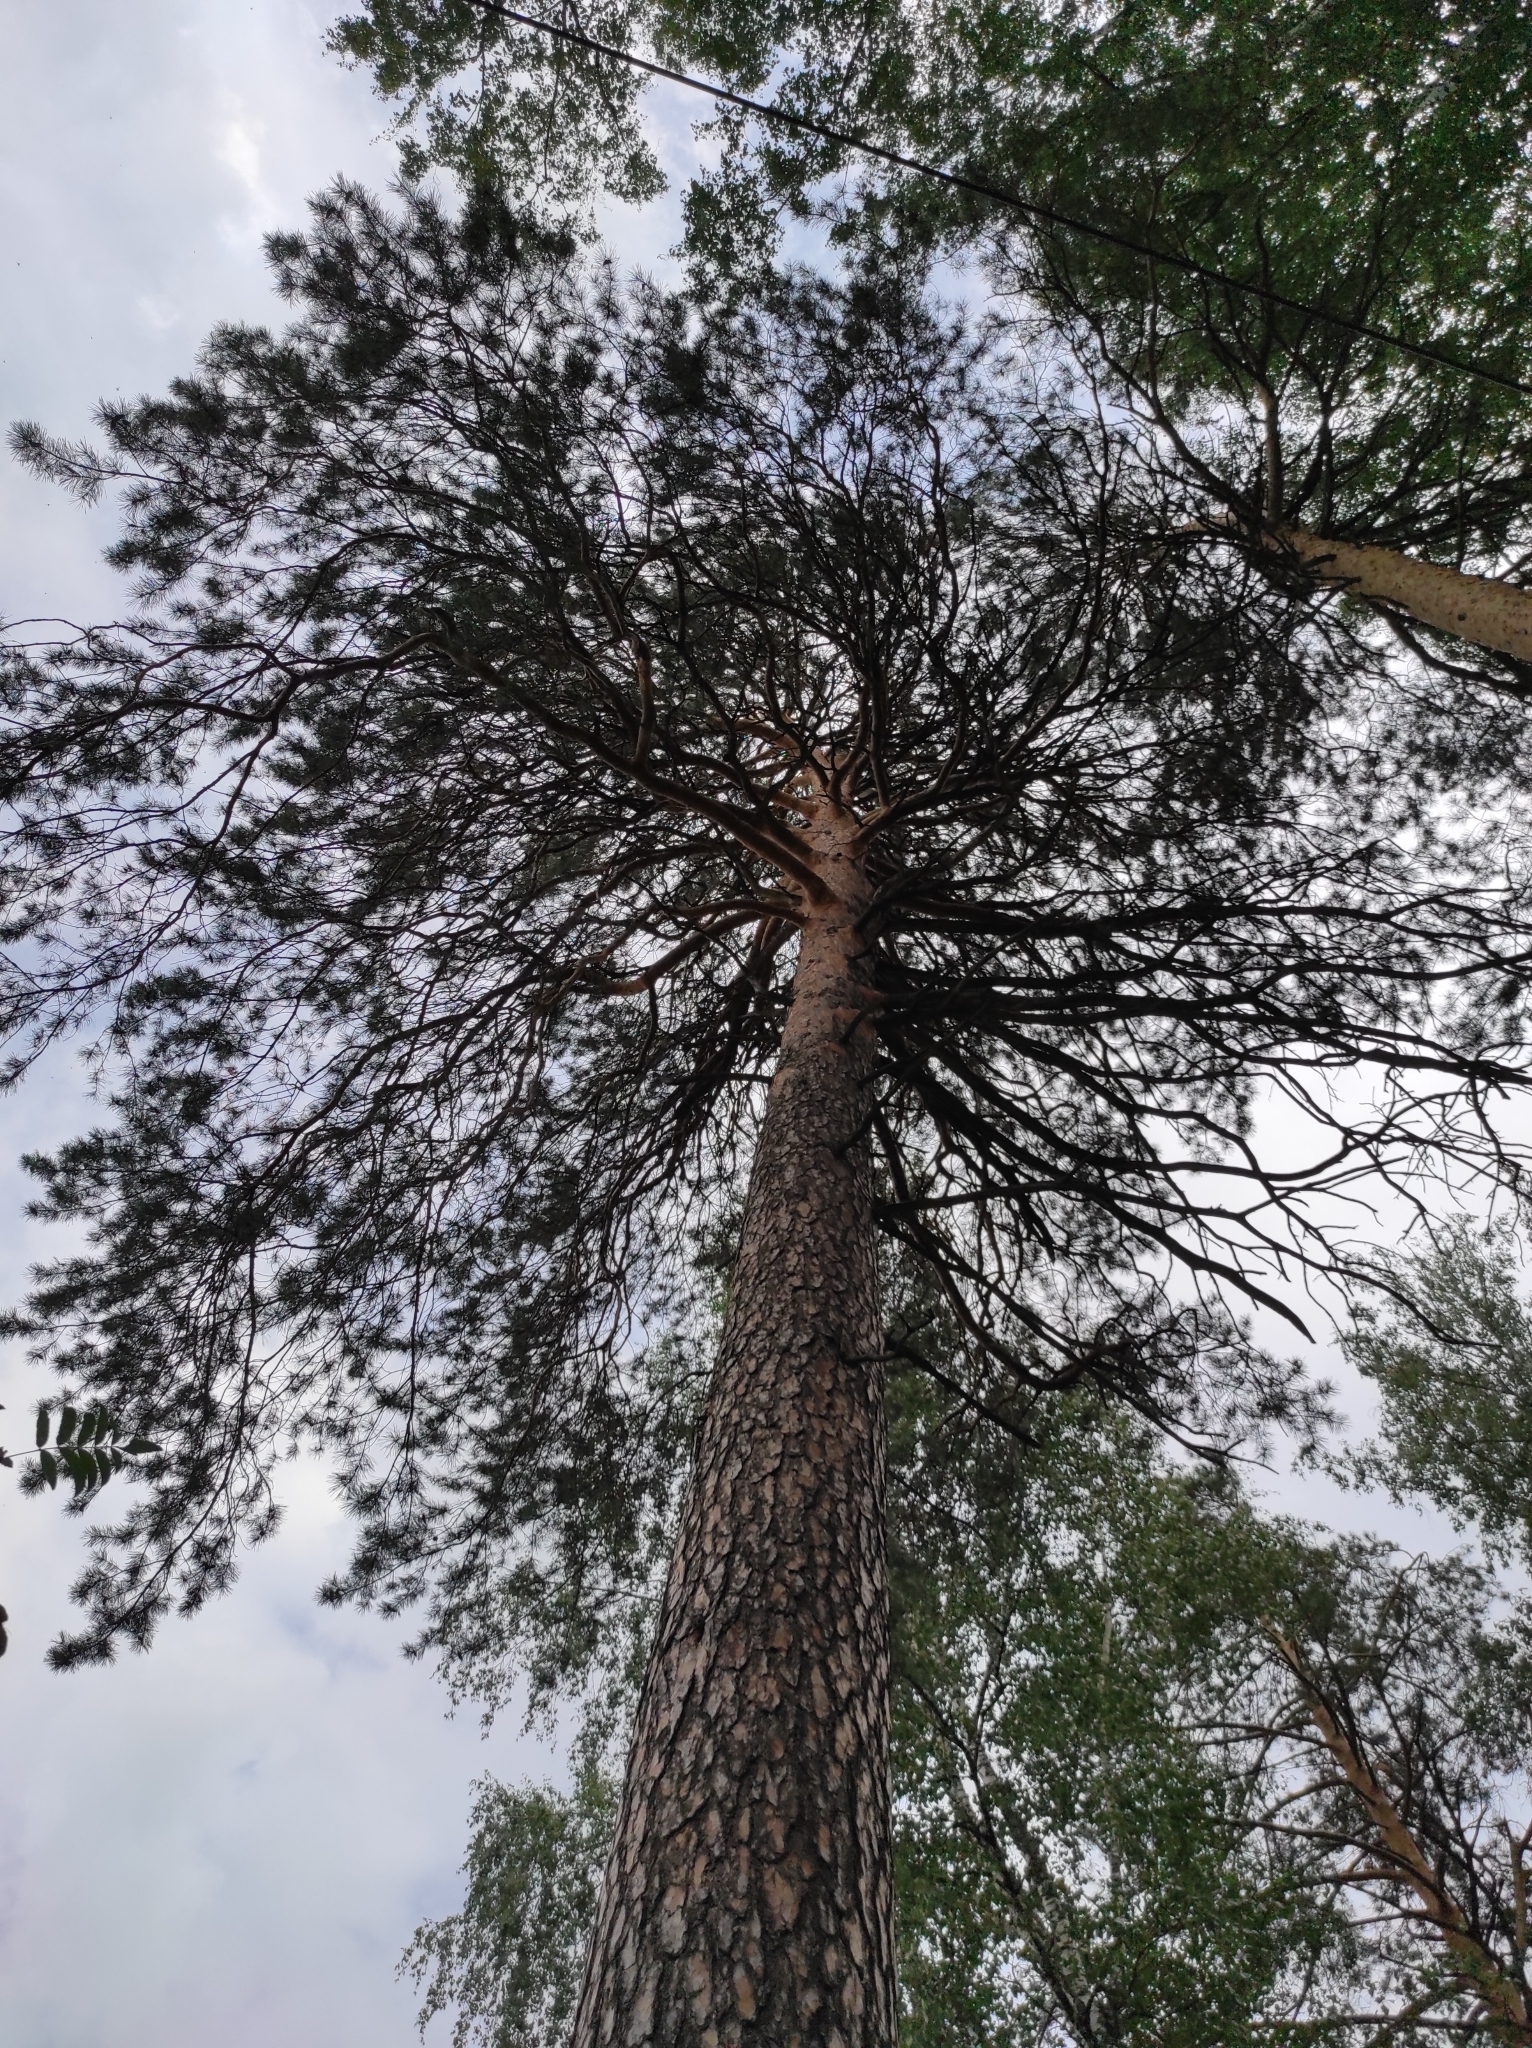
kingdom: Plantae
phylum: Tracheophyta
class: Pinopsida
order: Pinales
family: Pinaceae
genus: Pinus
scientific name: Pinus sylvestris
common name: Scots pine
